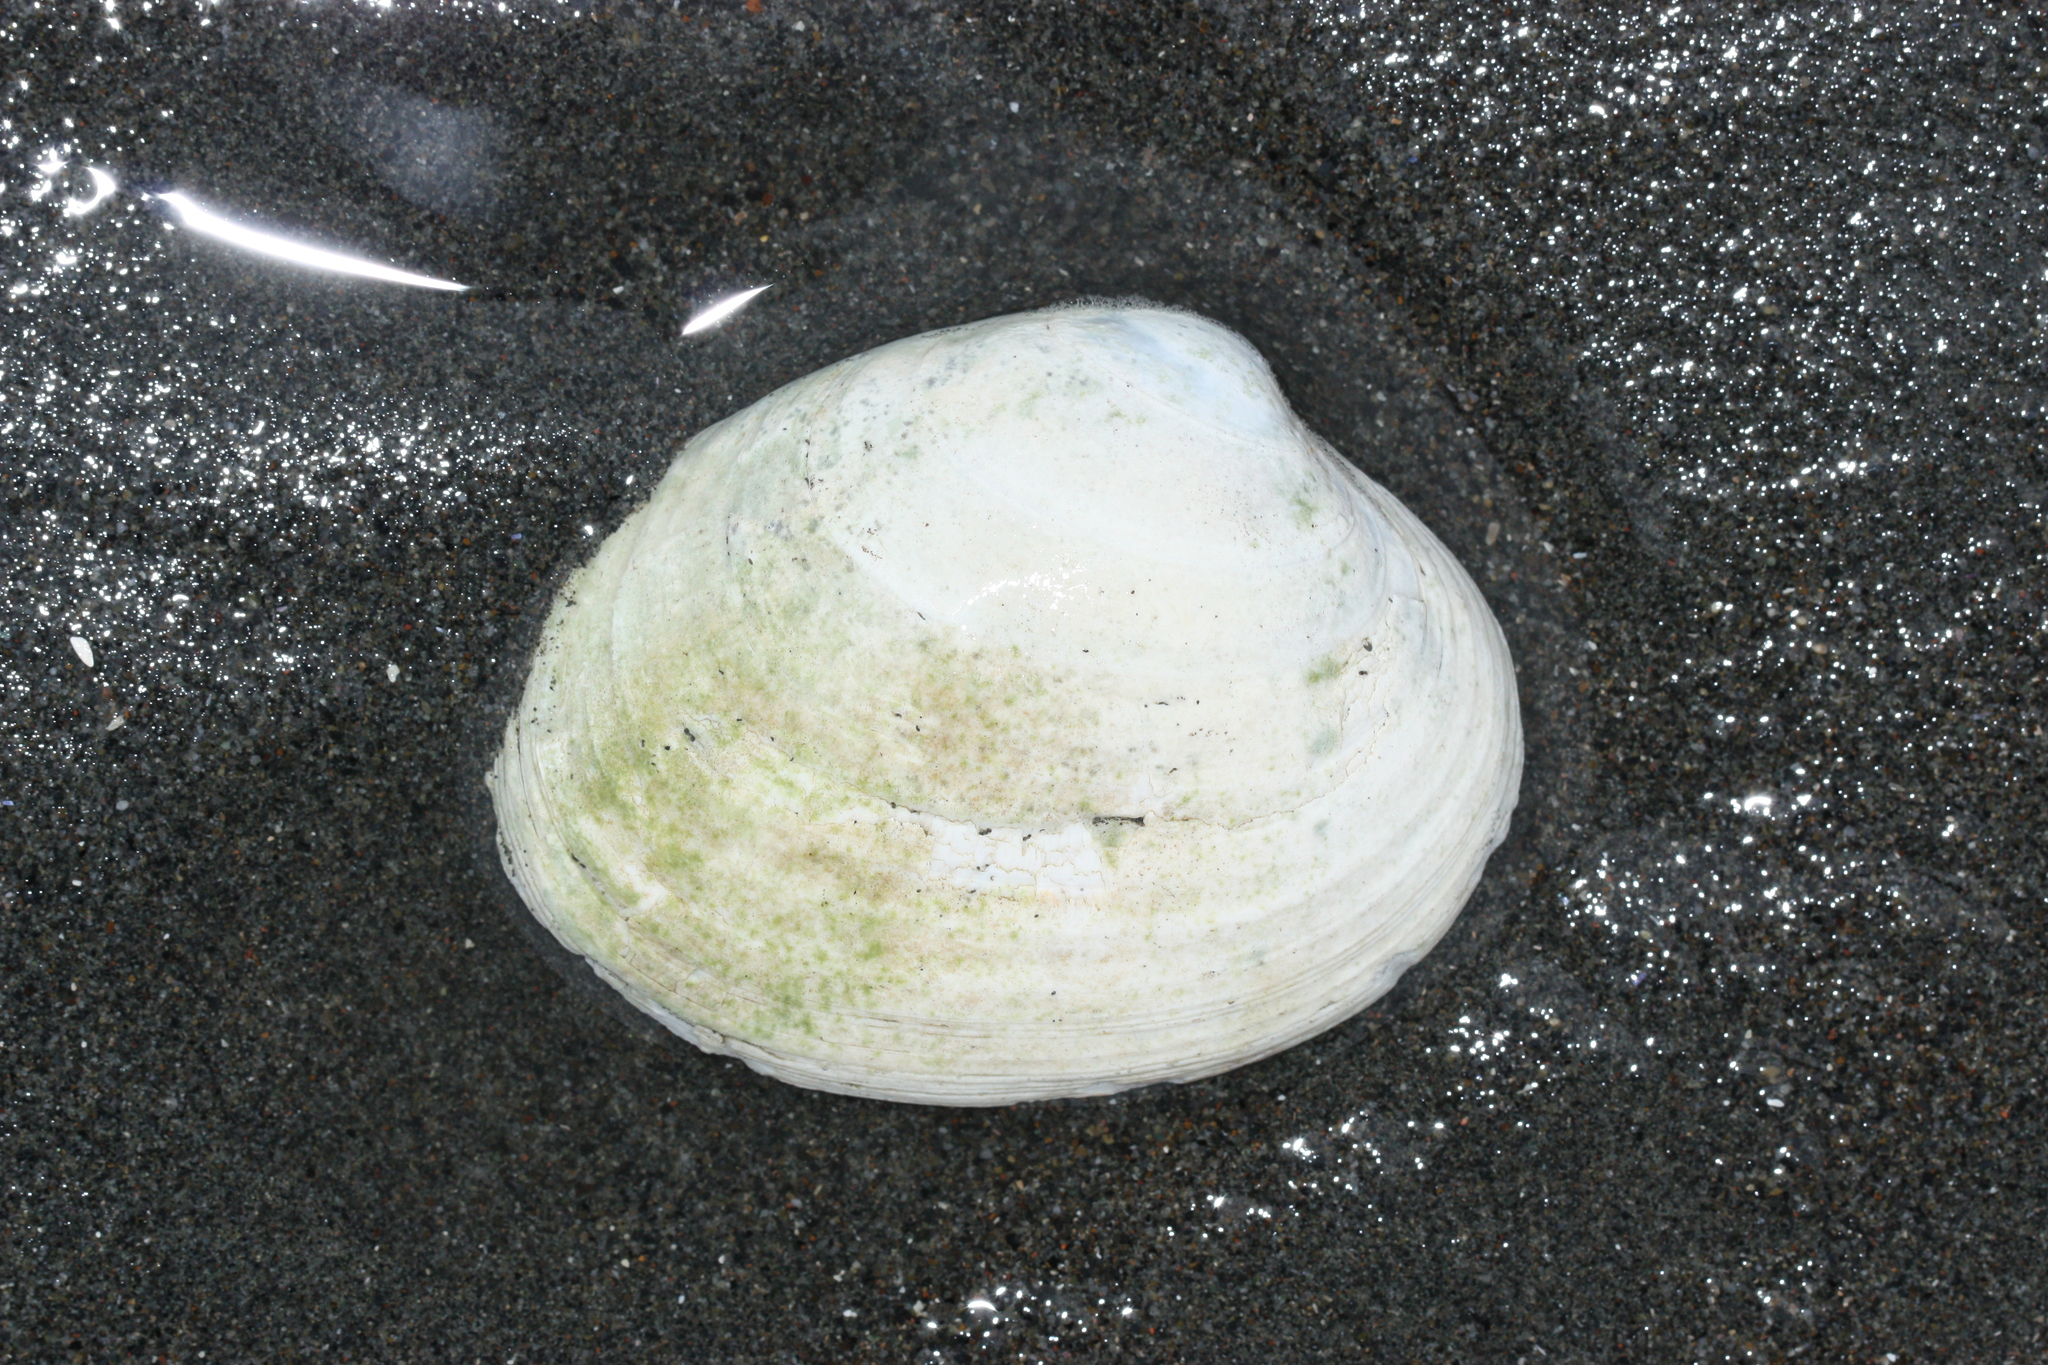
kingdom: Animalia
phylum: Mollusca
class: Bivalvia
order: Venerida
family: Veneridae
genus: Saxidomus
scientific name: Saxidomus gigantea
